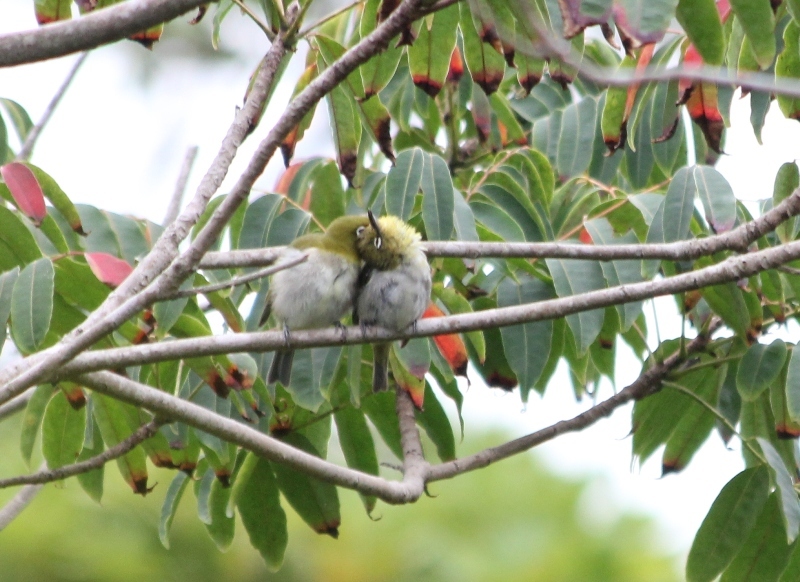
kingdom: Animalia
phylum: Chordata
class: Aves
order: Passeriformes
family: Zosteropidae
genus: Zosterops
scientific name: Zosterops japonicus
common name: Japanese white-eye
